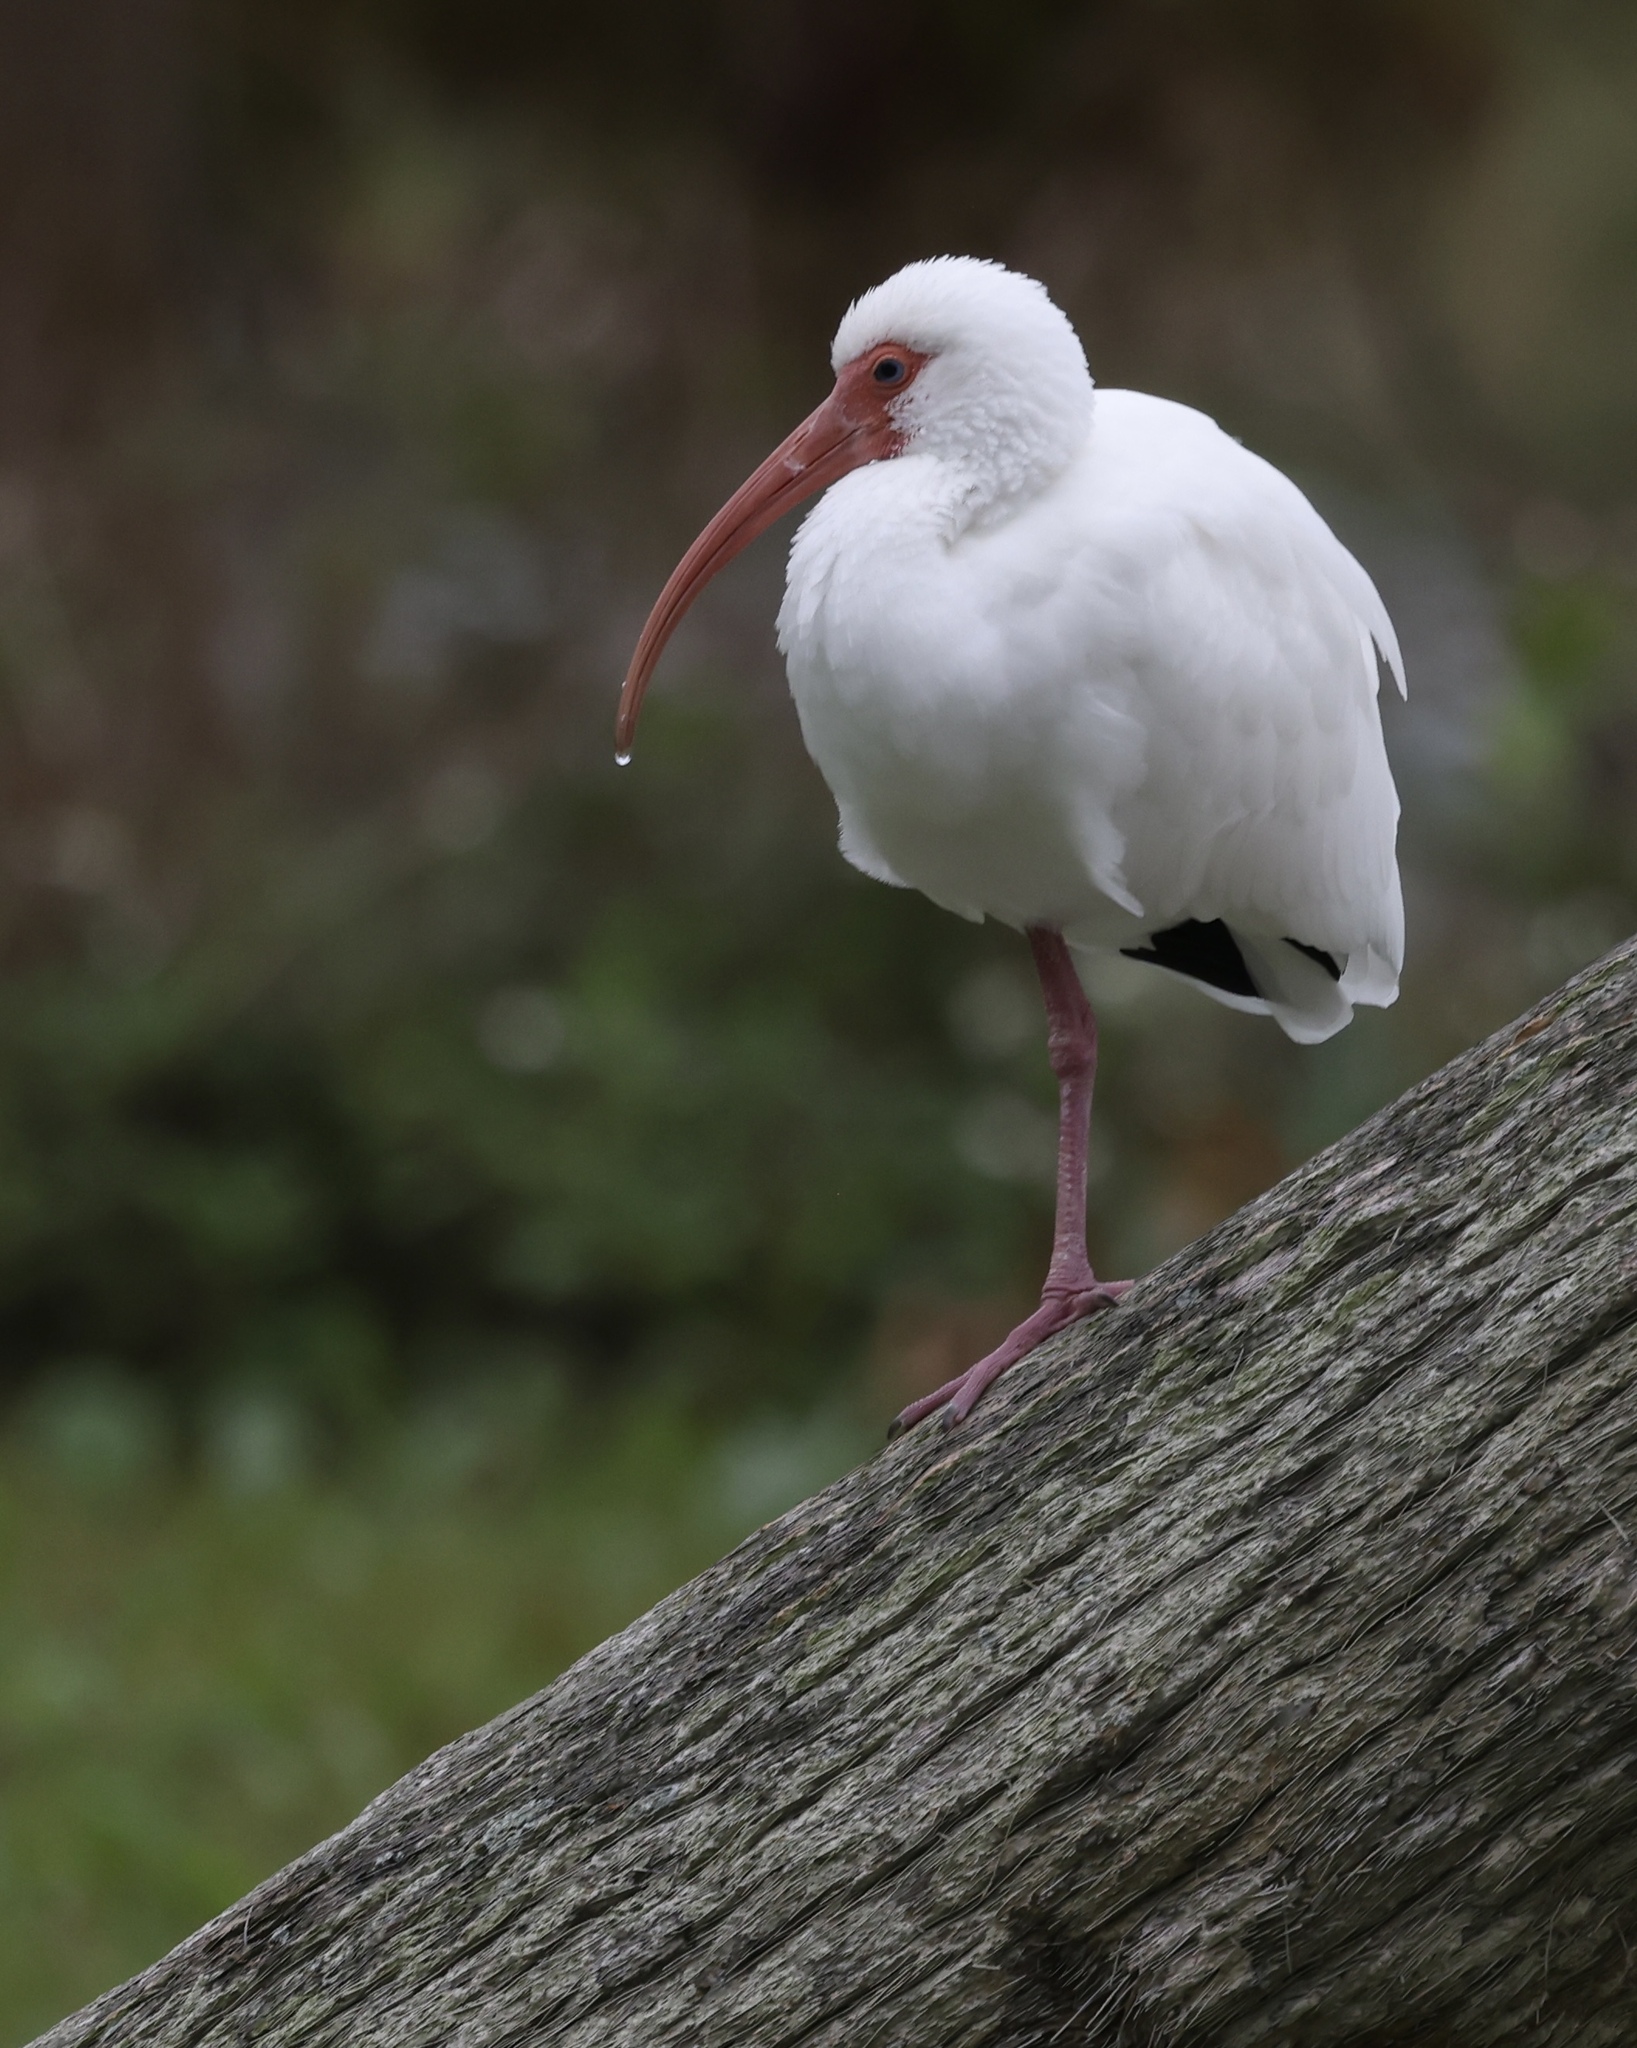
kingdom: Animalia
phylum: Chordata
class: Aves
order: Pelecaniformes
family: Threskiornithidae
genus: Eudocimus
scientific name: Eudocimus albus
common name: White ibis
